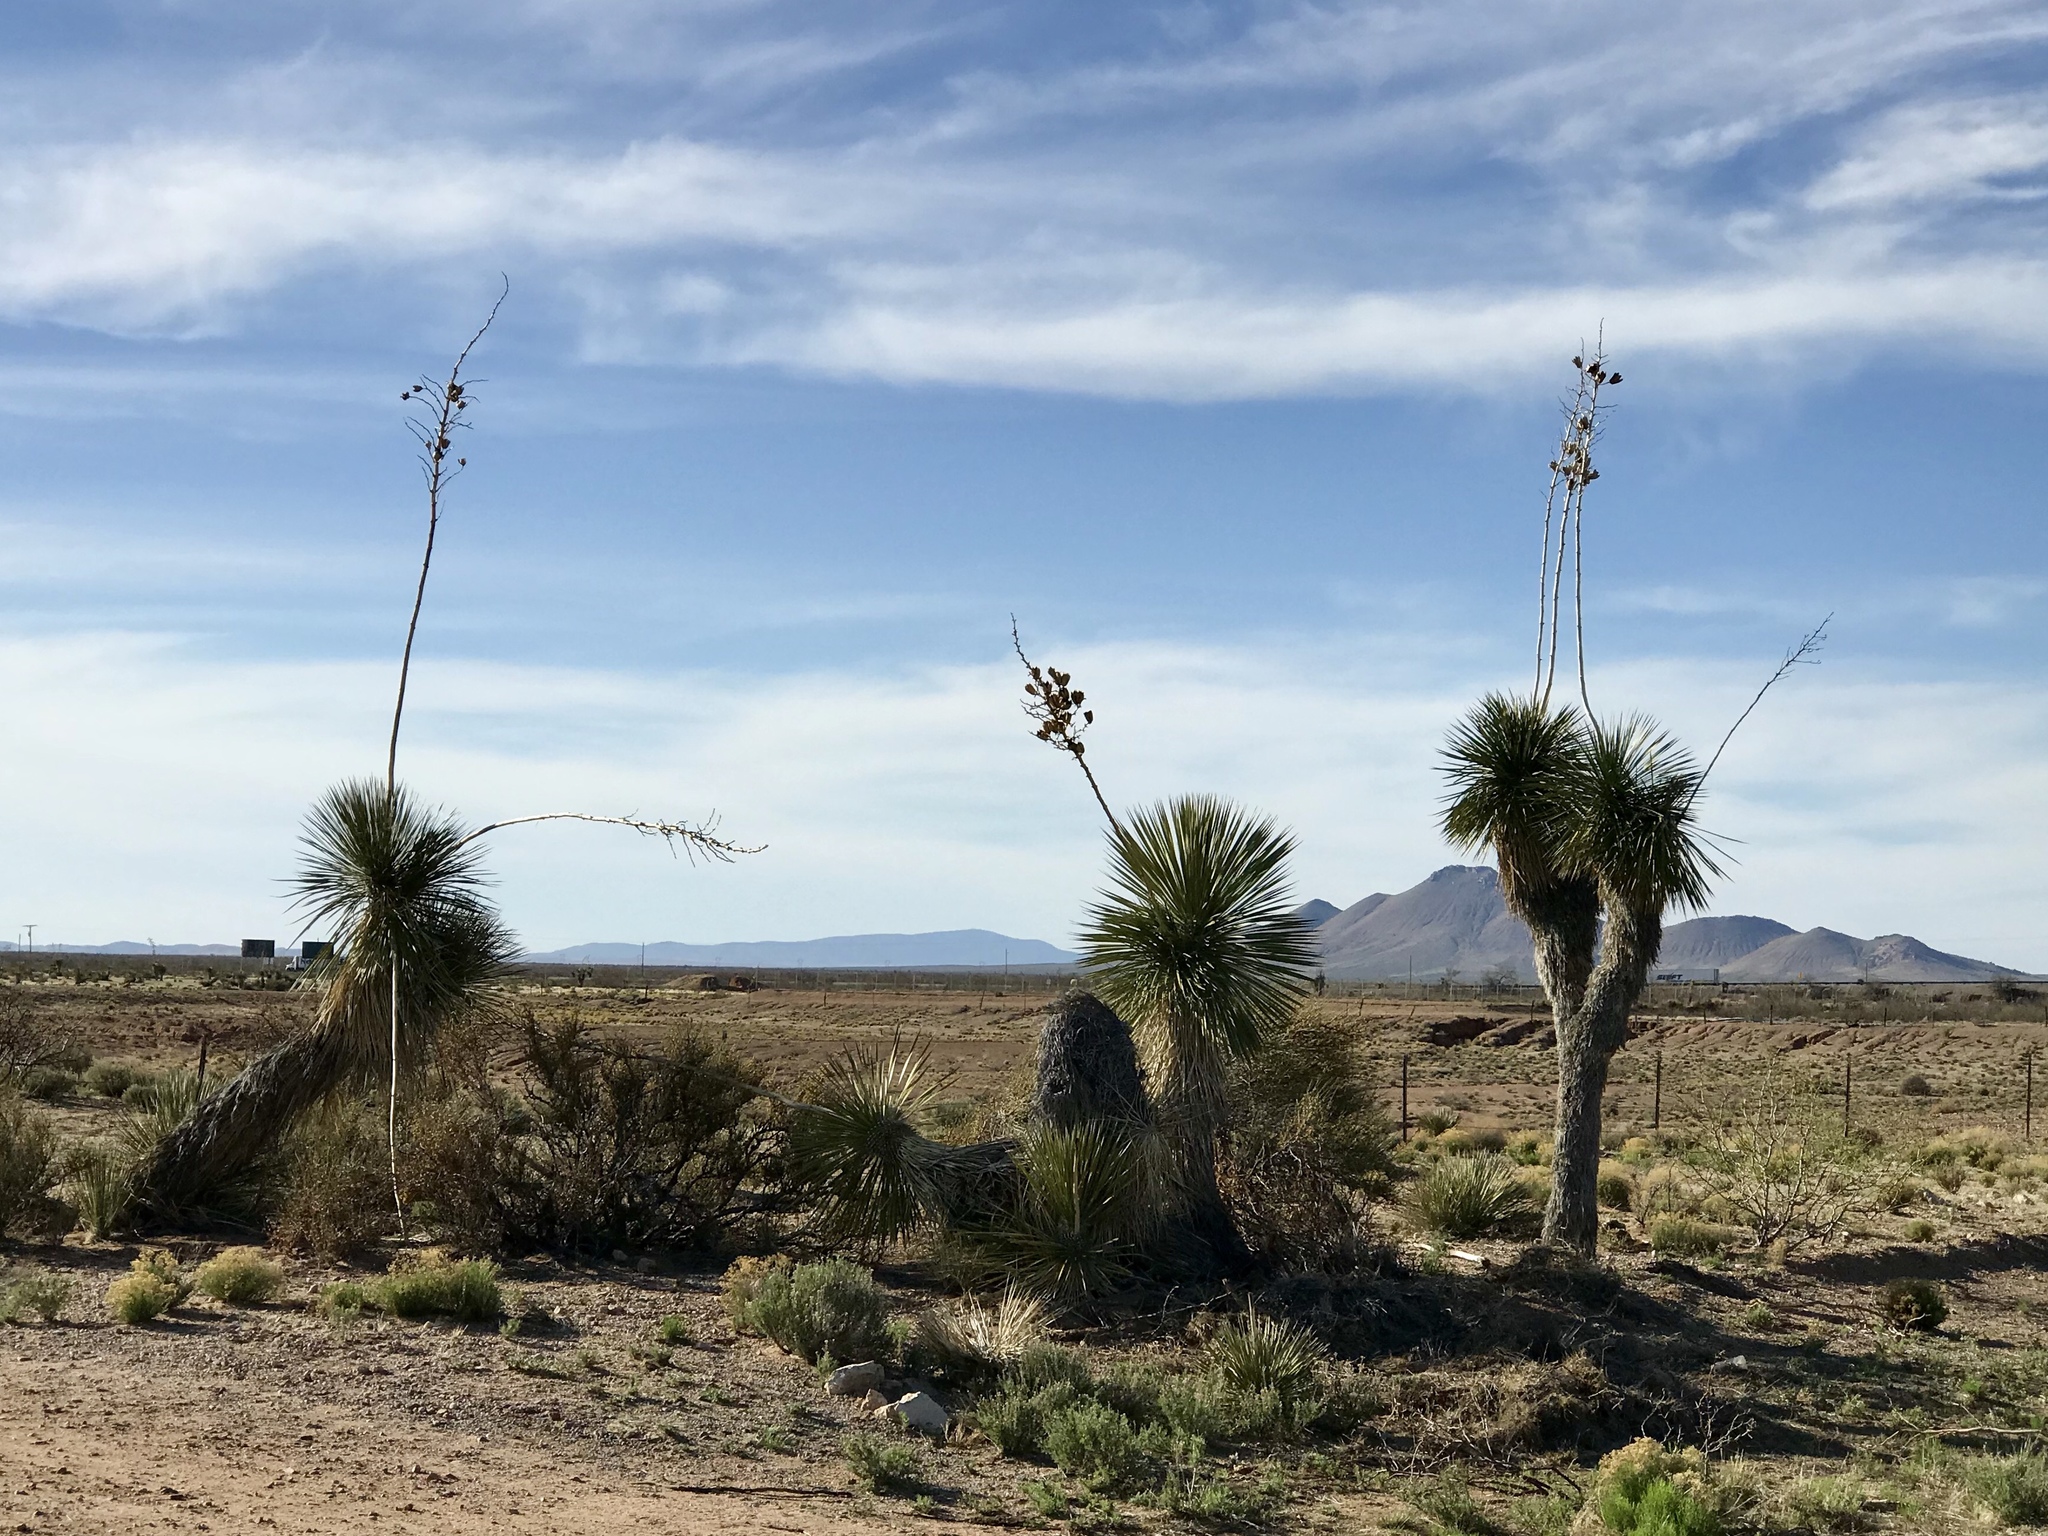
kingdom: Plantae
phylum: Tracheophyta
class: Liliopsida
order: Asparagales
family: Asparagaceae
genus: Yucca
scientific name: Yucca elata
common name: Palmella
